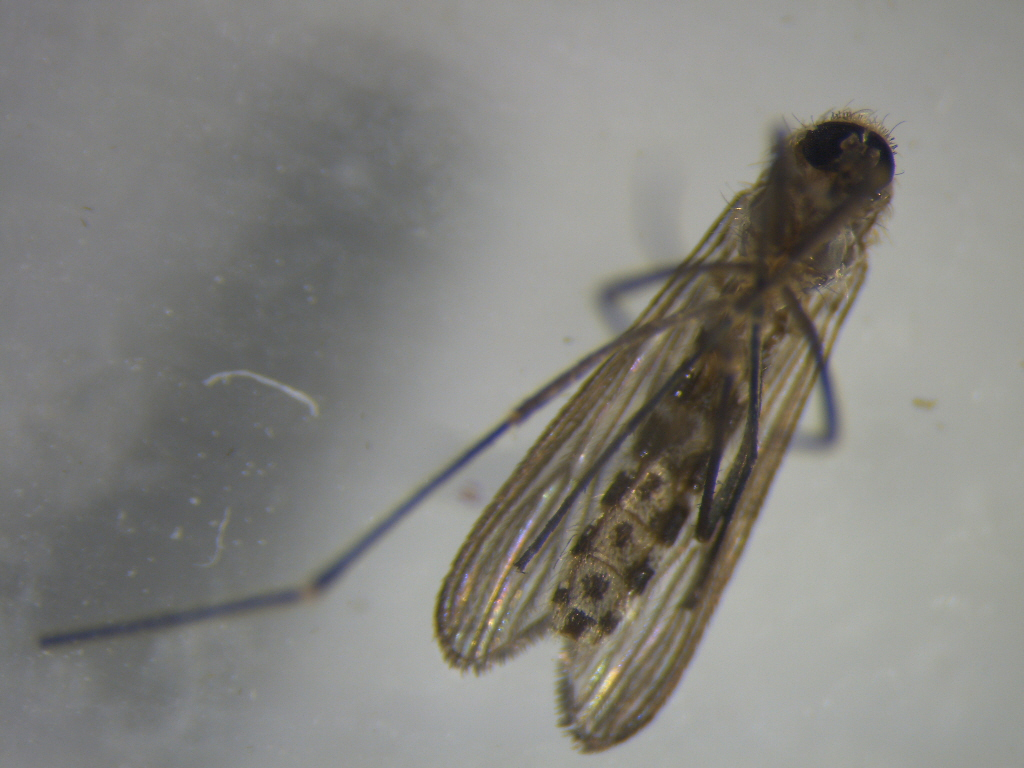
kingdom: Animalia
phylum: Arthropoda
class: Insecta
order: Diptera
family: Culicidae
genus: Culex
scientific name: Culex pervigilans
